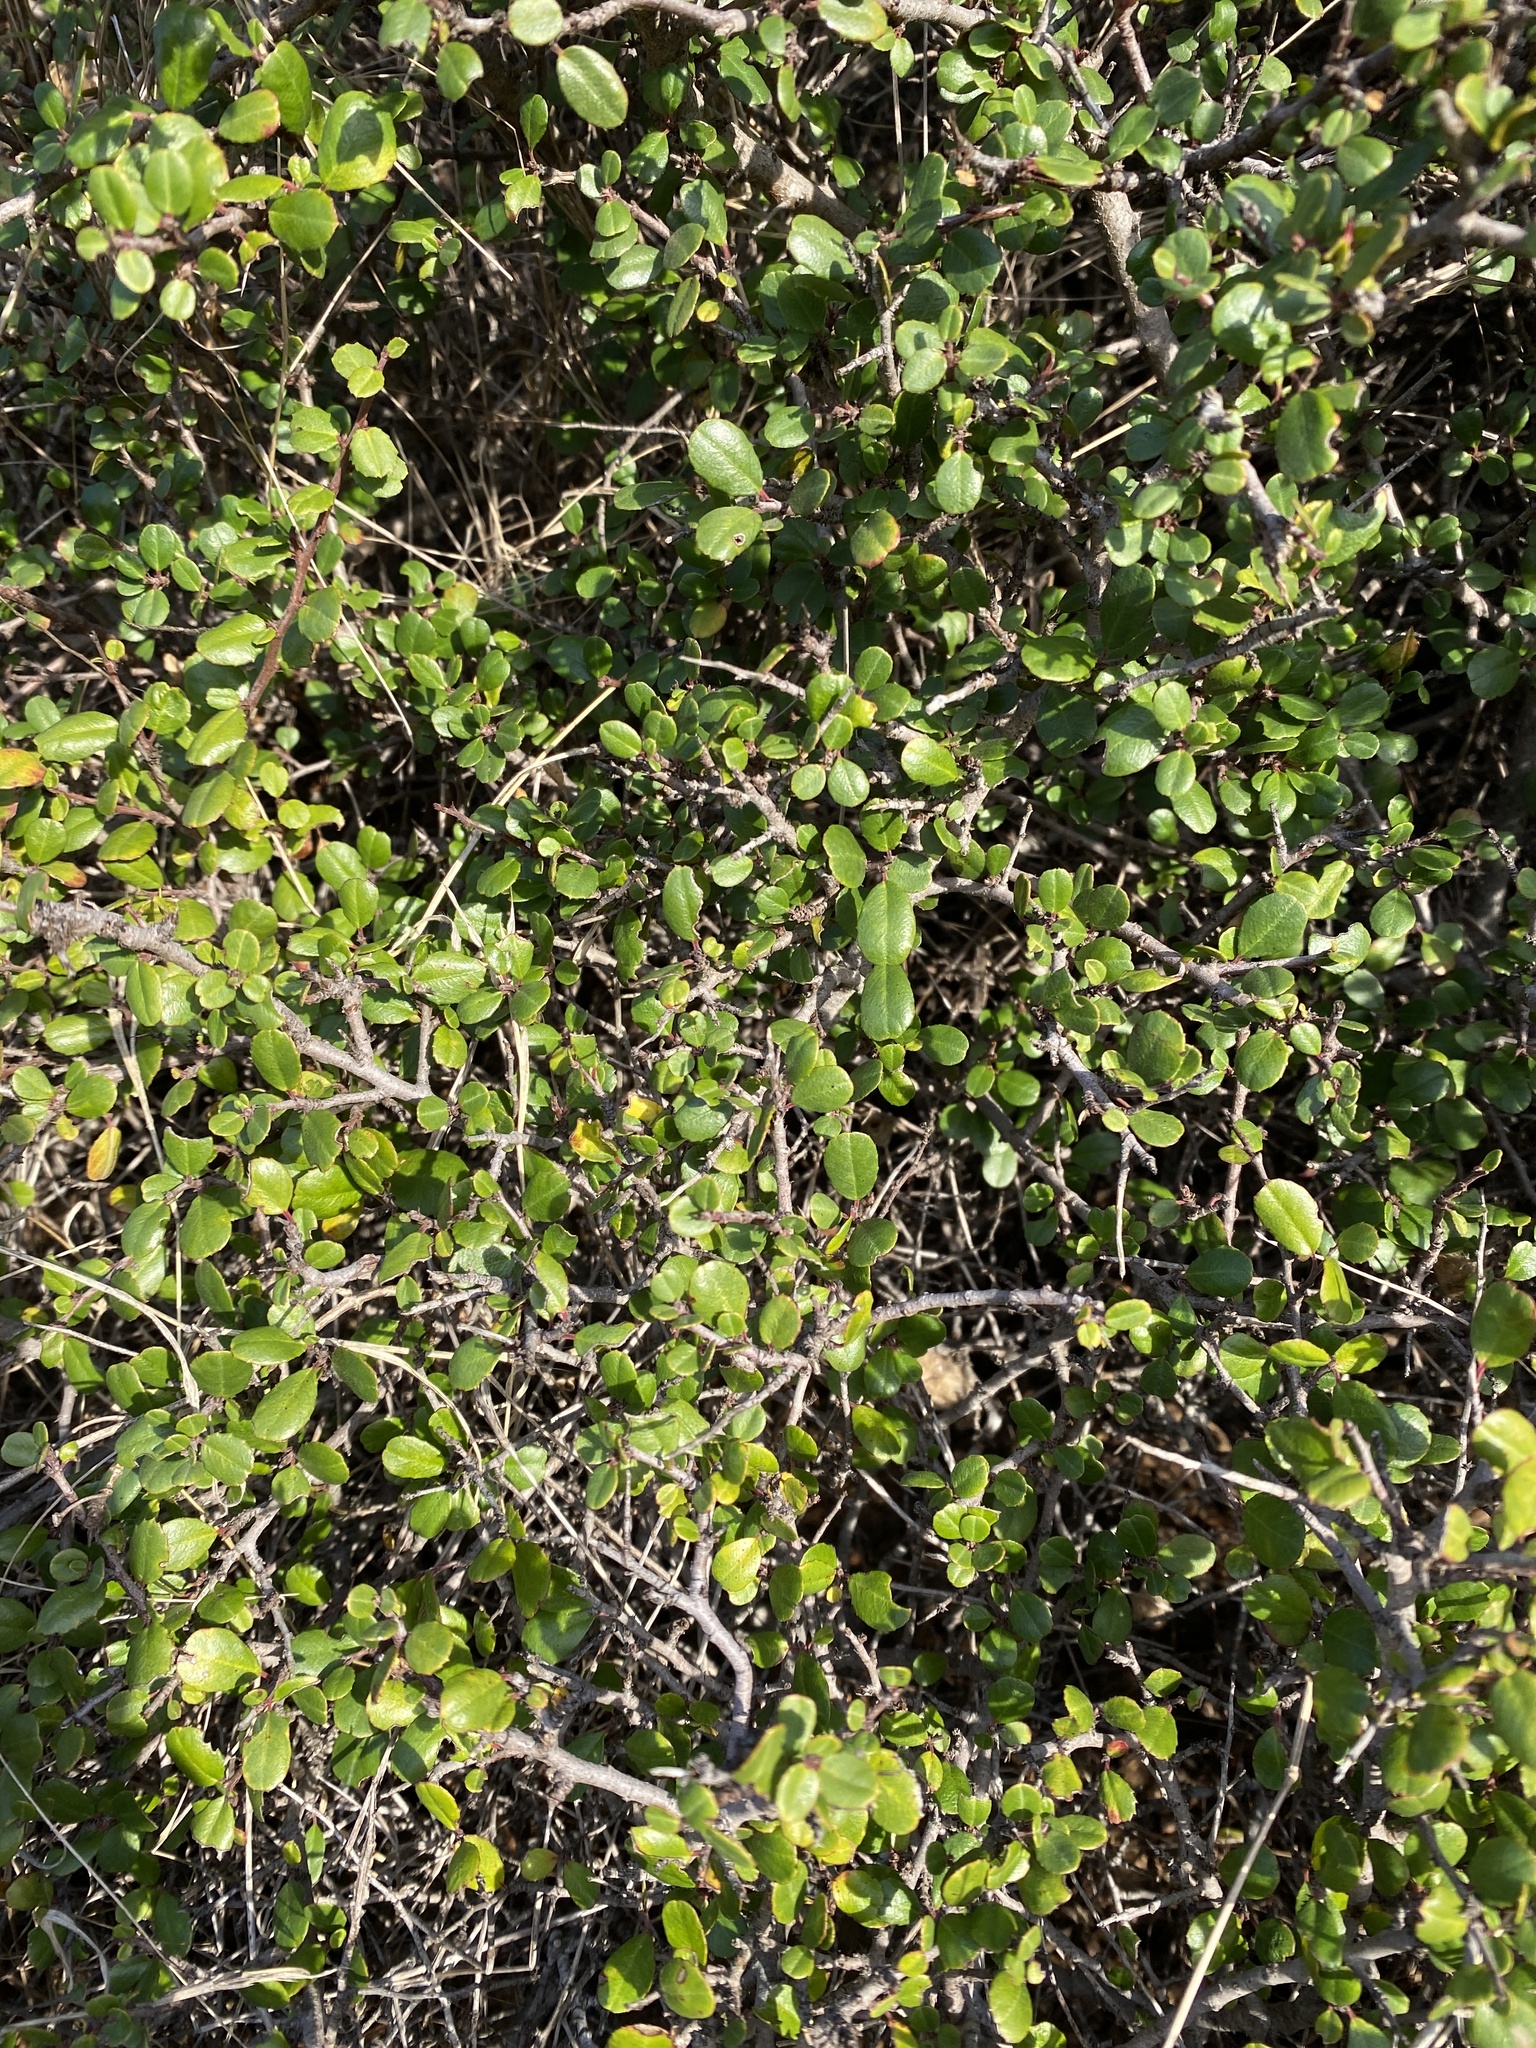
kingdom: Plantae
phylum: Tracheophyta
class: Magnoliopsida
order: Rosales
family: Rhamnaceae
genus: Endotropis
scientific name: Endotropis crocea
